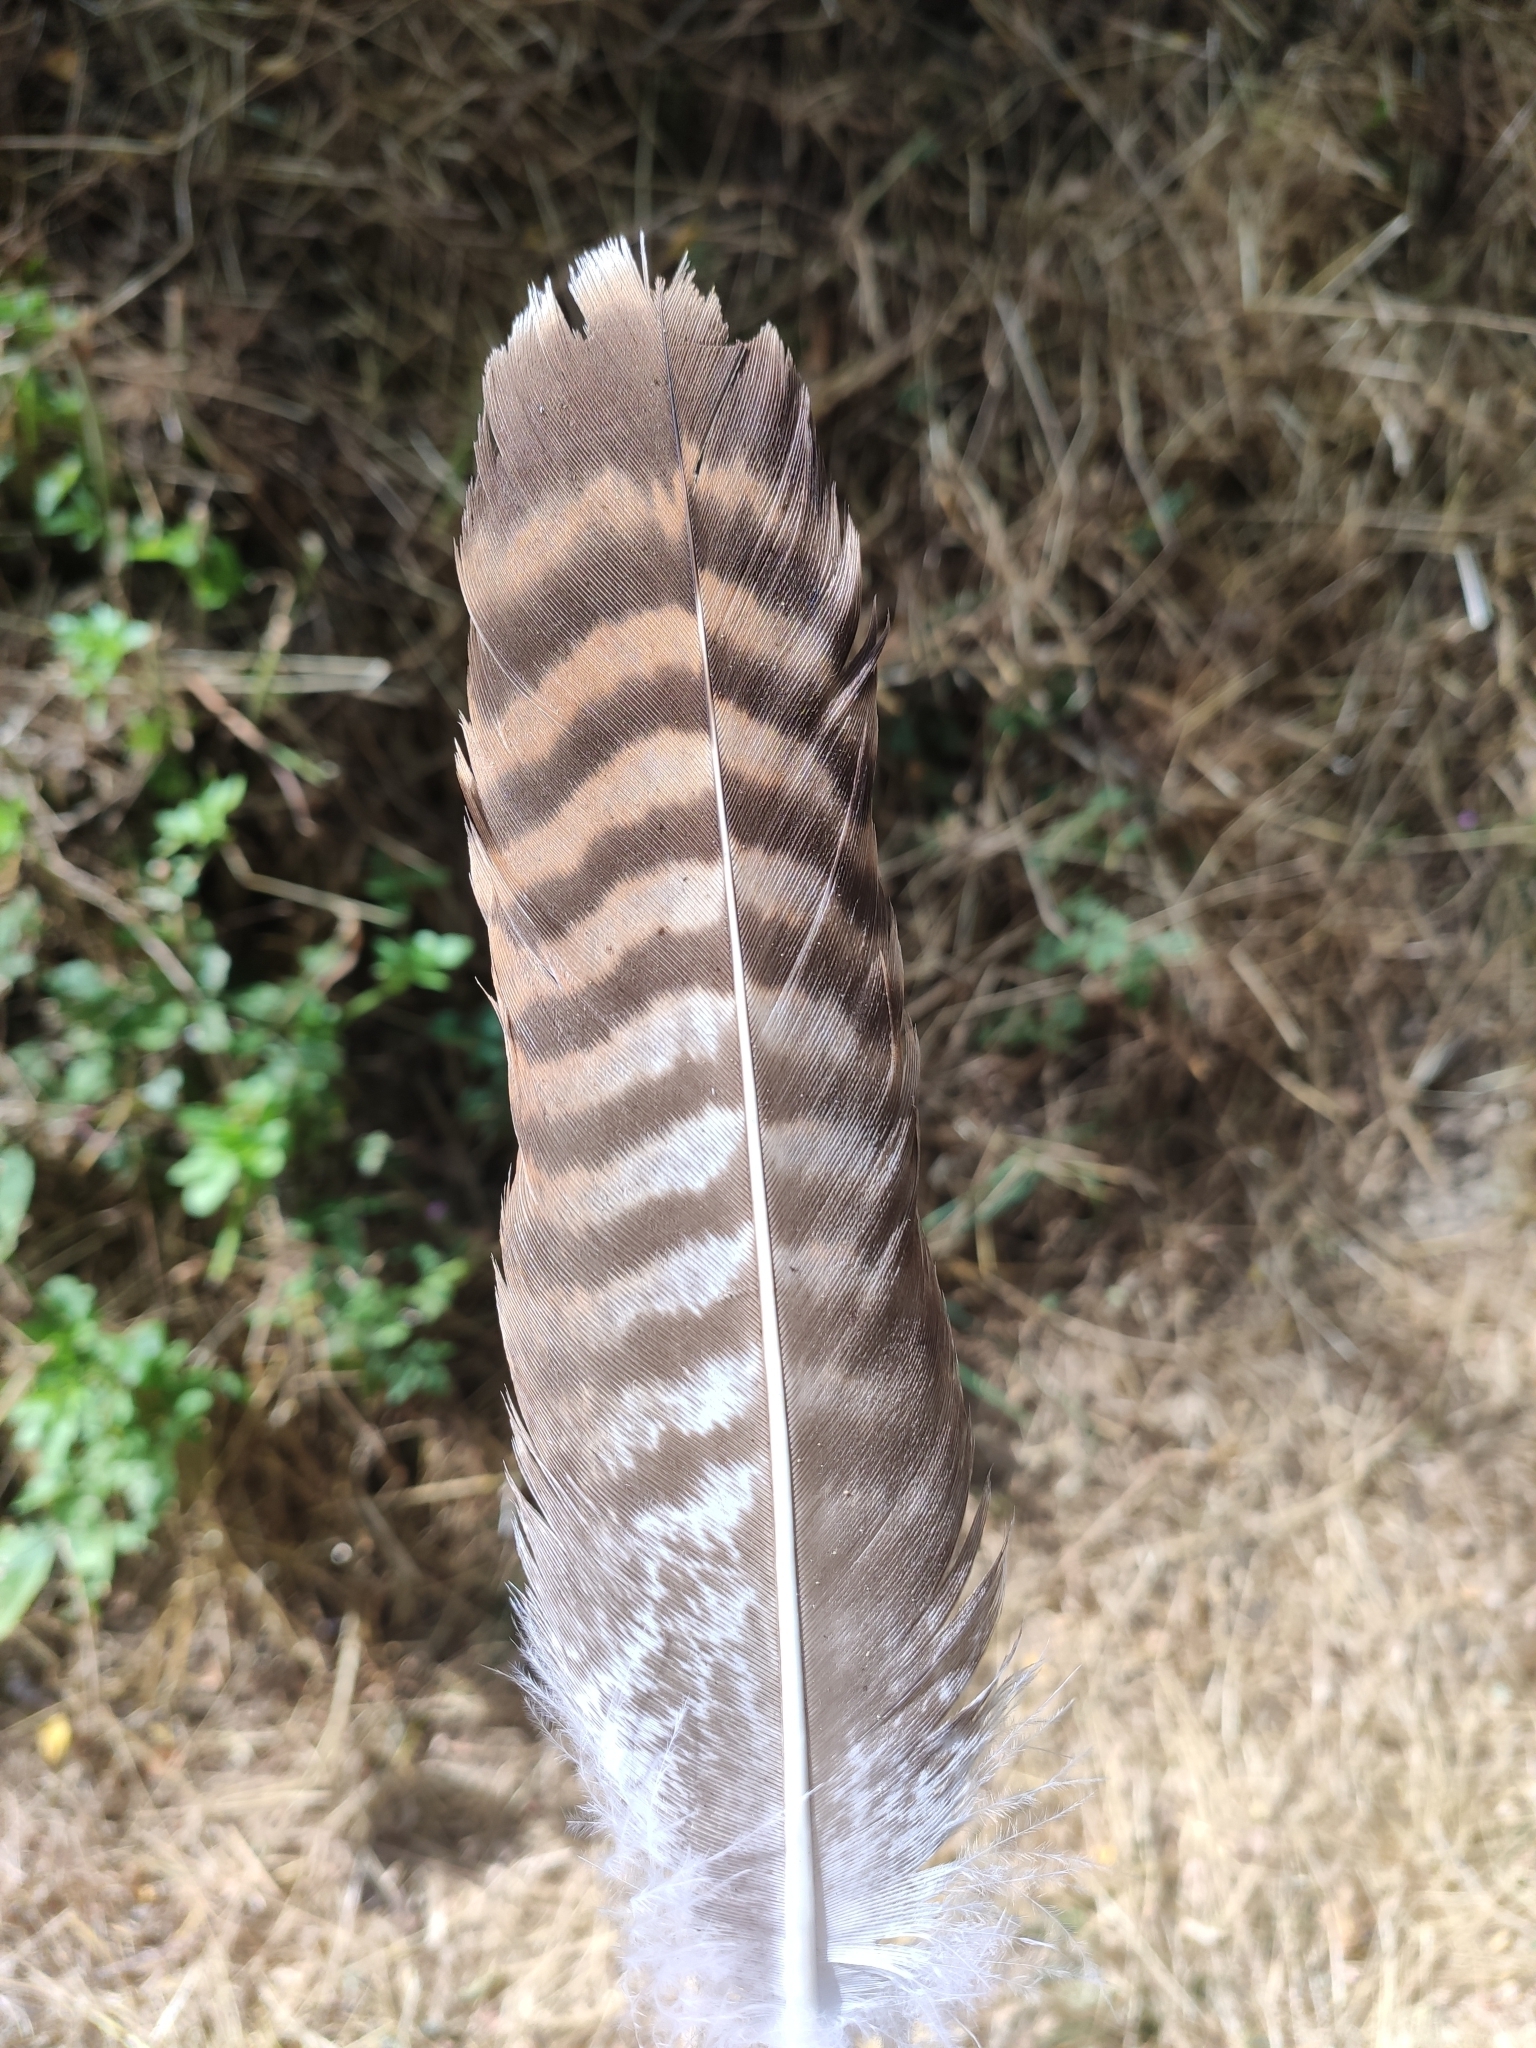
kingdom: Animalia
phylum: Chordata
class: Aves
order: Accipitriformes
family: Accipitridae
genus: Buteo
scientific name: Buteo buteo
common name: Common buzzard
